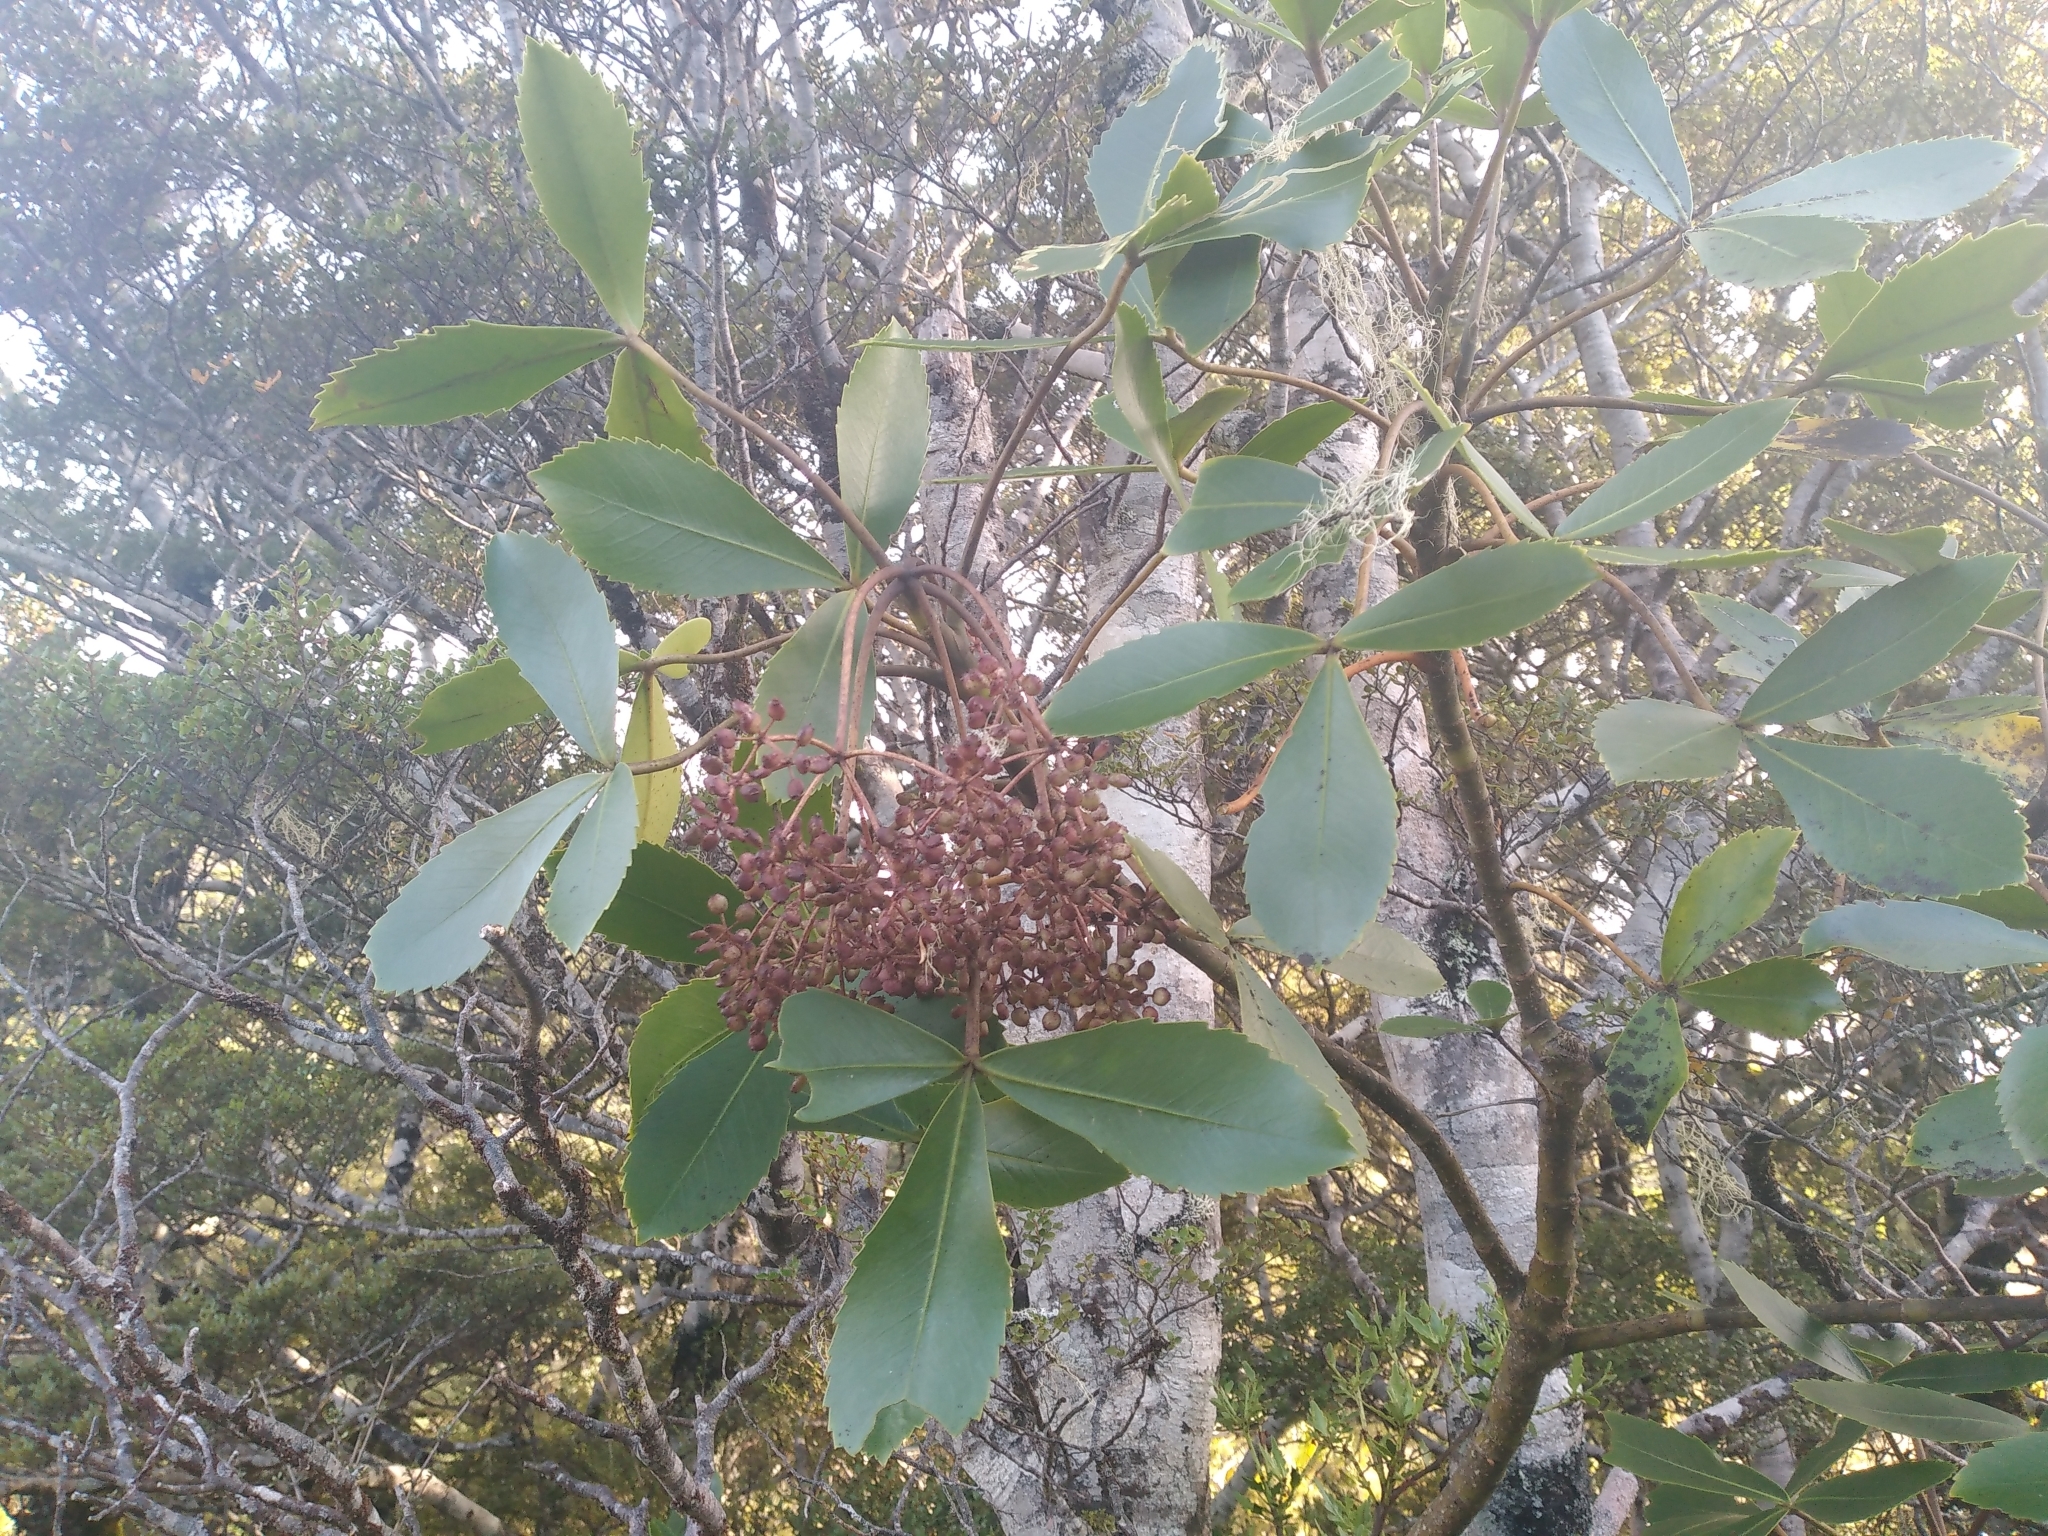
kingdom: Plantae
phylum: Tracheophyta
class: Magnoliopsida
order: Apiales
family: Araliaceae
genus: Neopanax
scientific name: Neopanax colensoi
